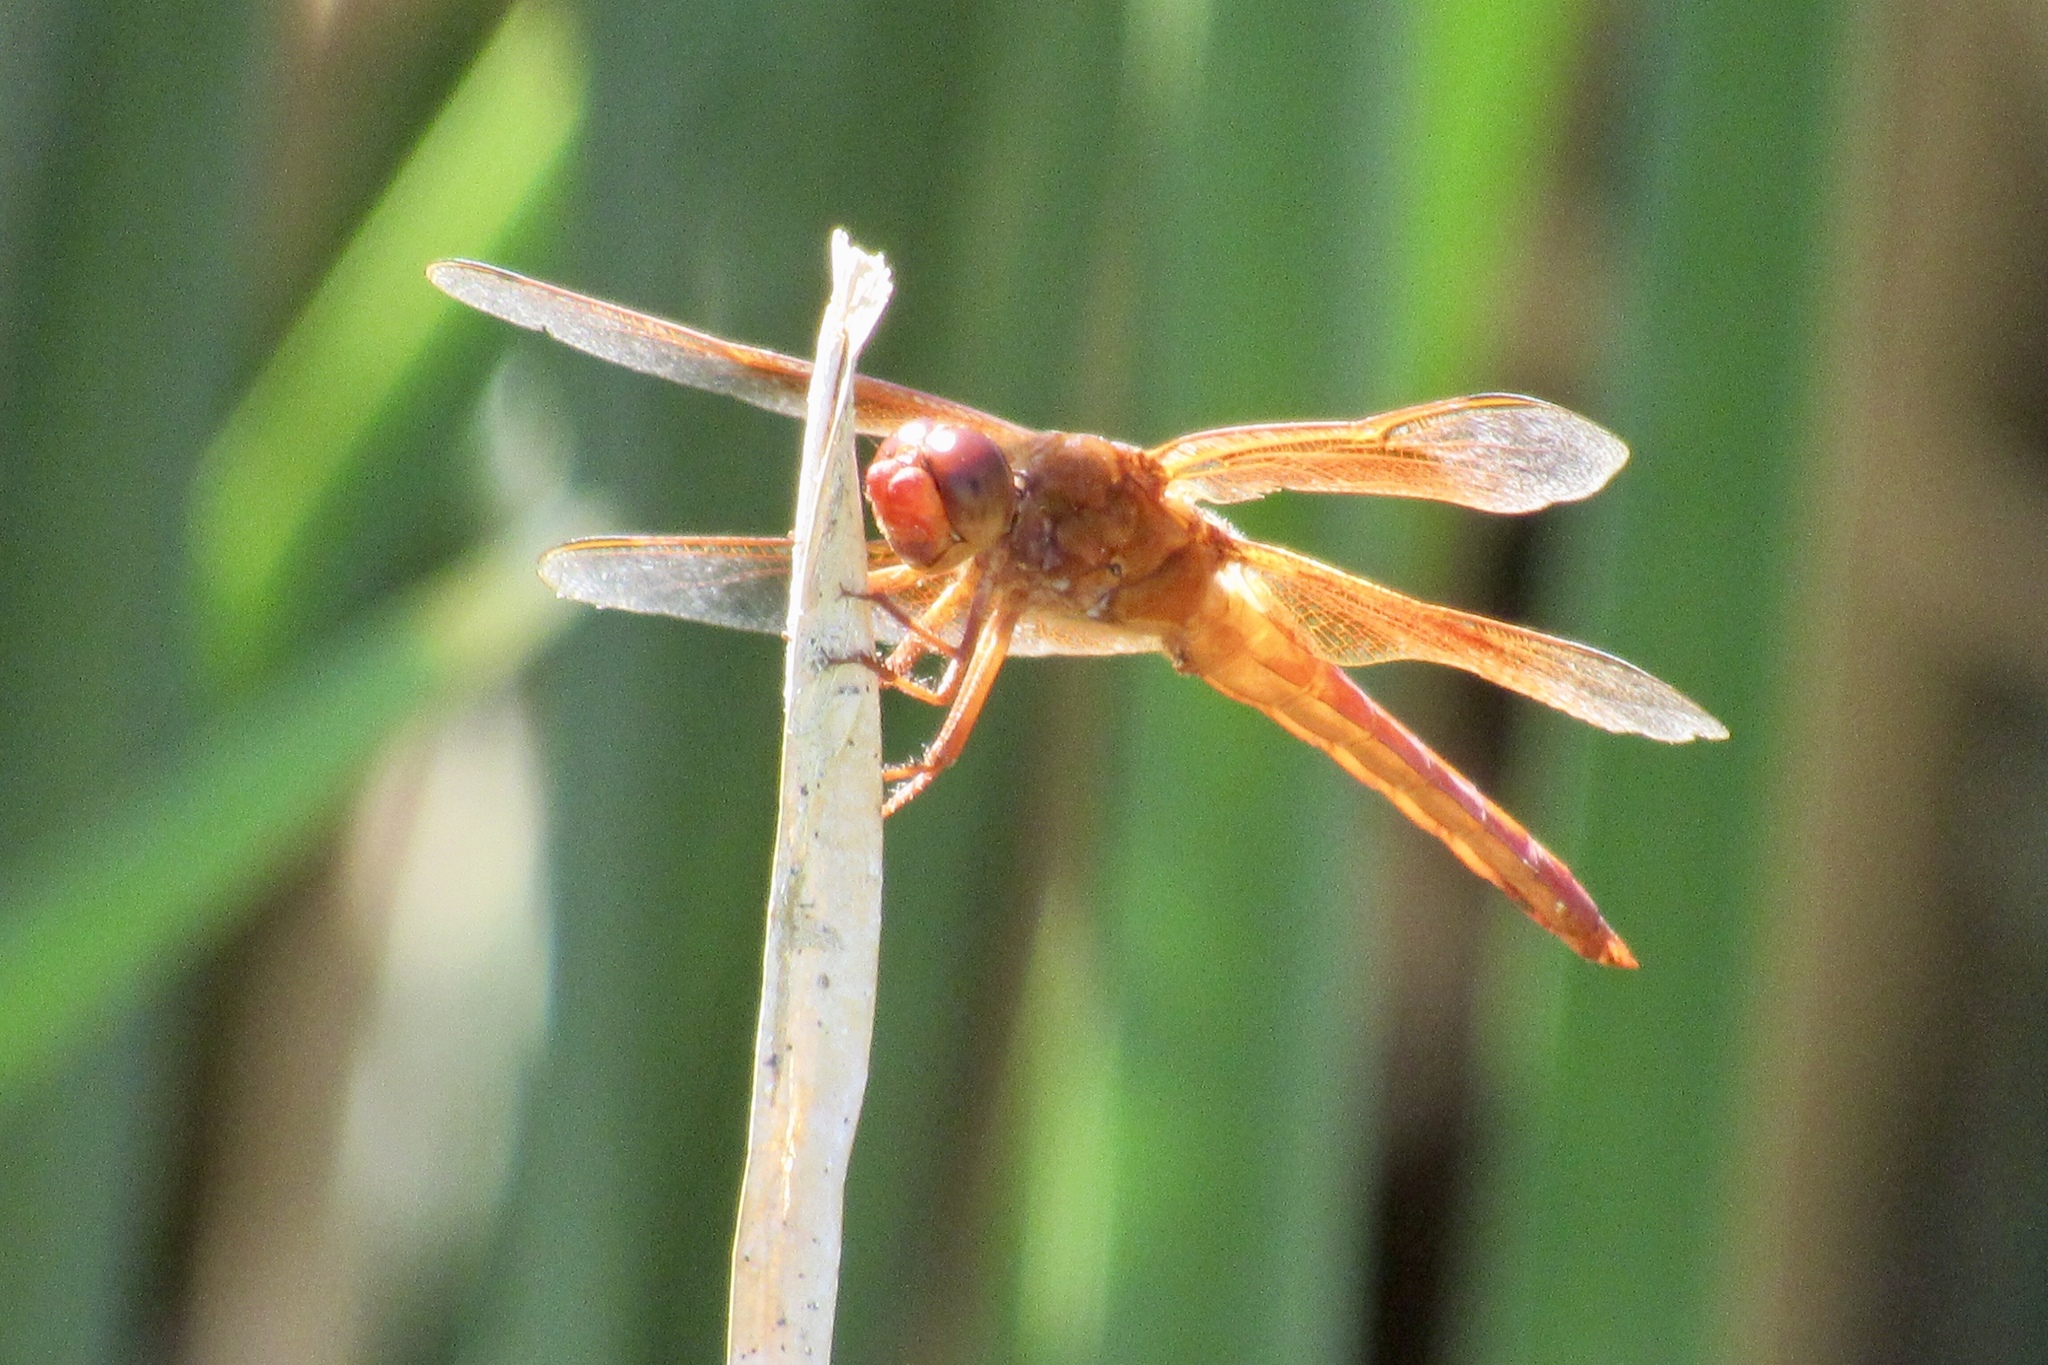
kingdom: Animalia
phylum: Arthropoda
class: Insecta
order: Odonata
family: Libellulidae
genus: Libellula
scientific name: Libellula saturata
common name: Flame skimmer
